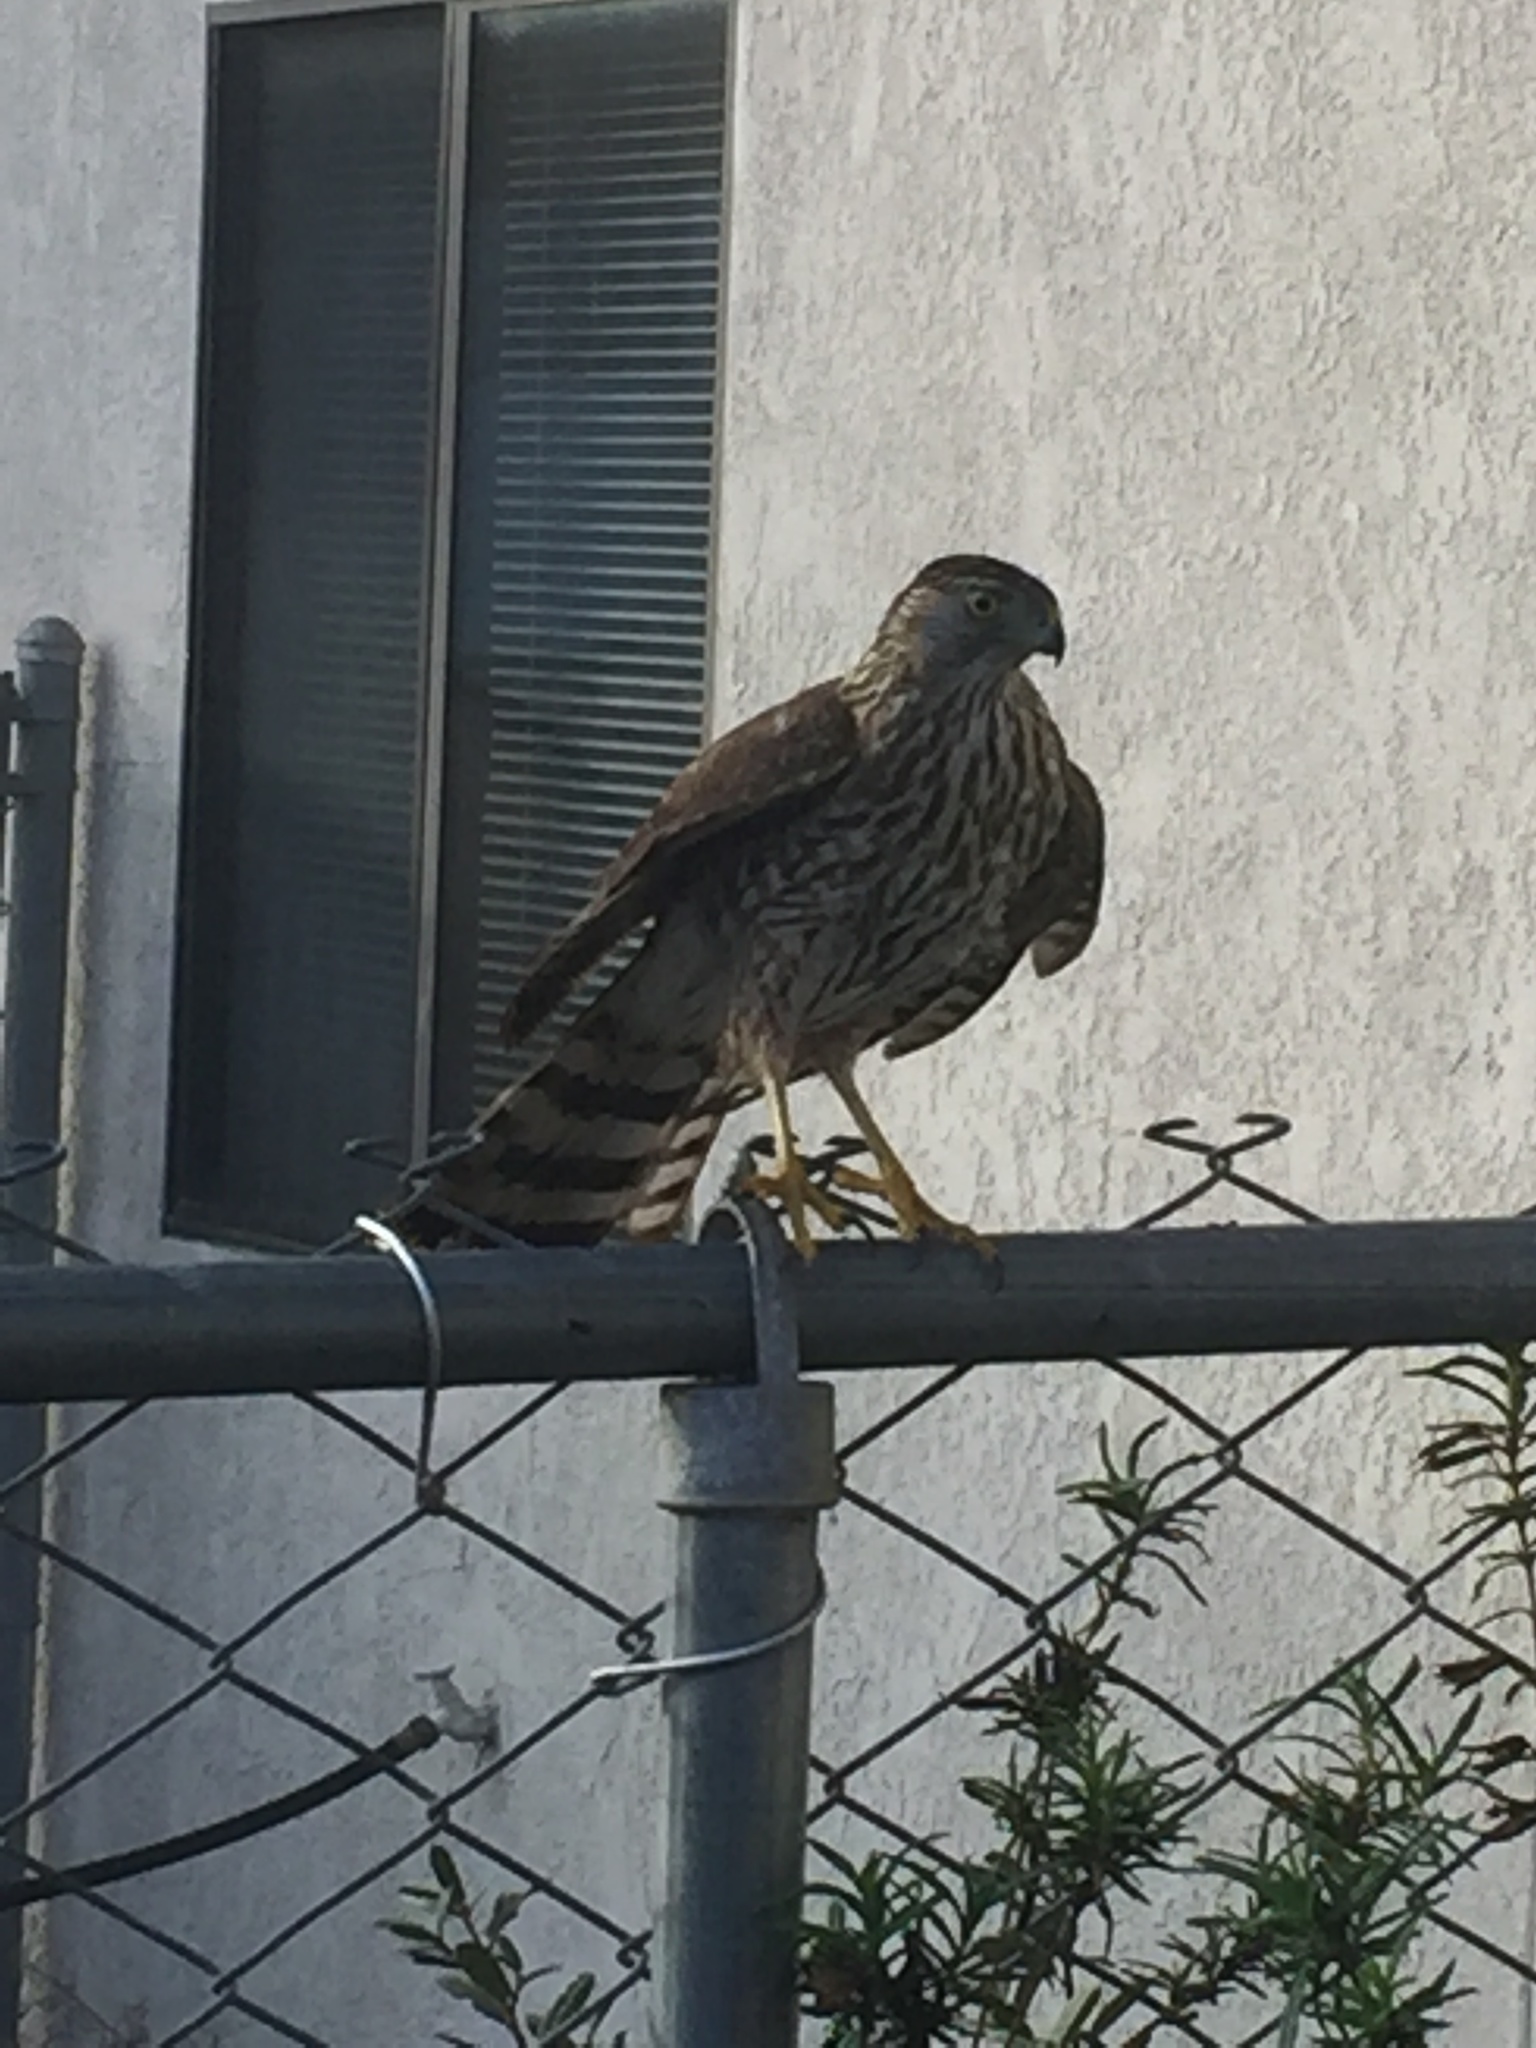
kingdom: Animalia
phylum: Chordata
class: Aves
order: Accipitriformes
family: Accipitridae
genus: Accipiter
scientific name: Accipiter cooperii
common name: Cooper's hawk
